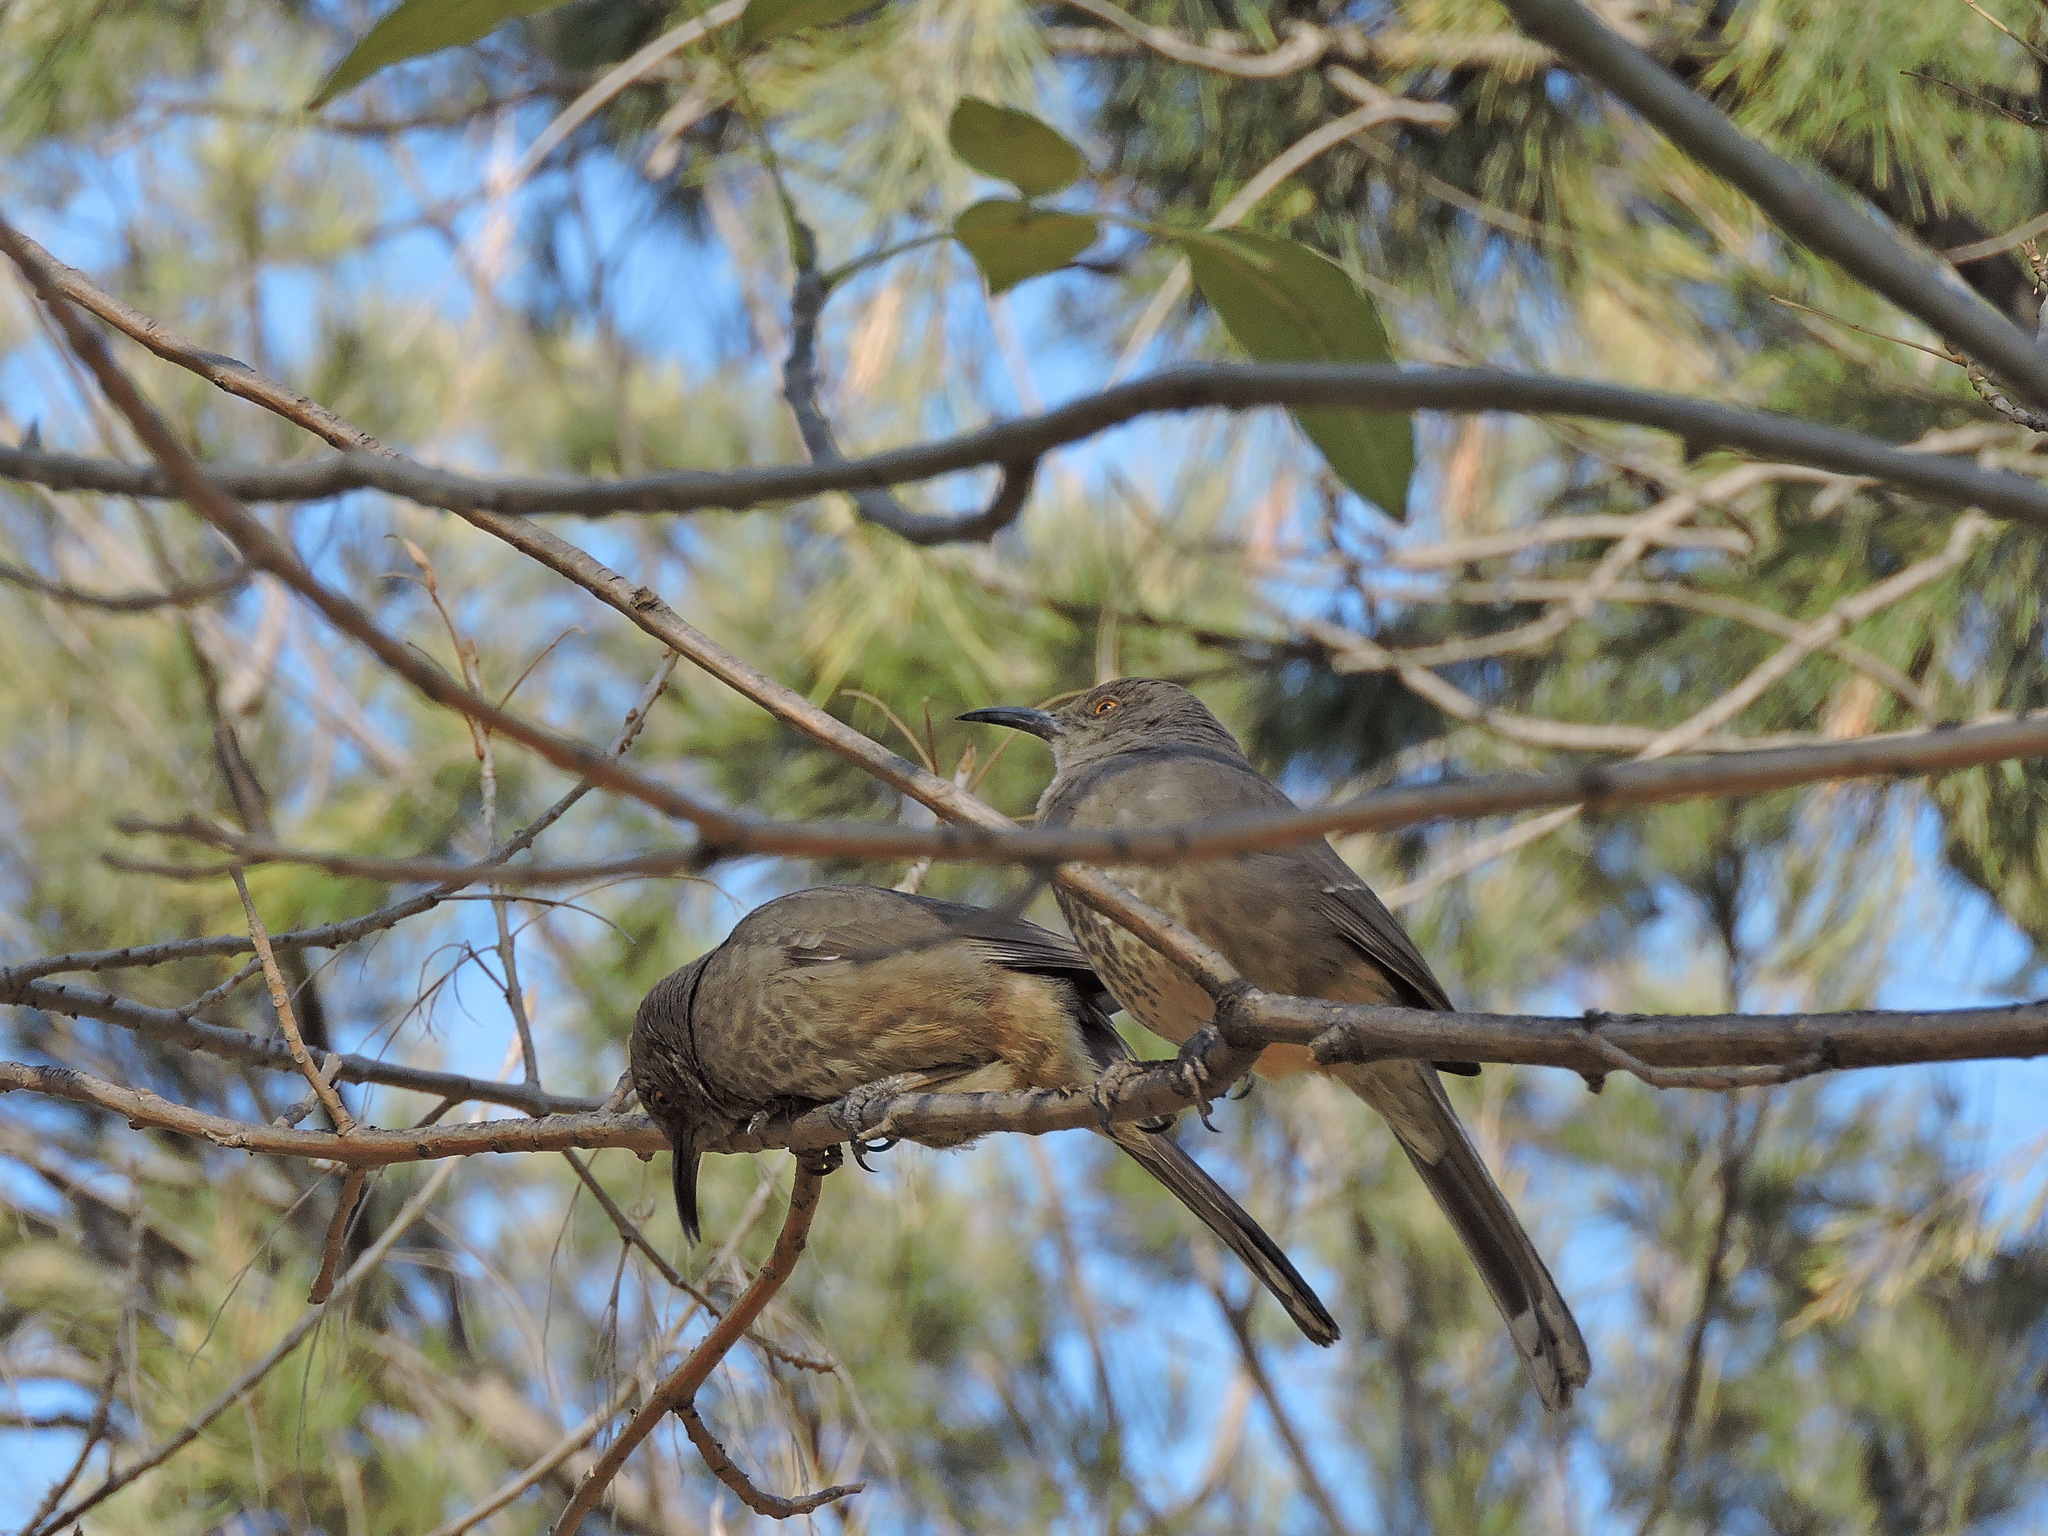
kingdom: Animalia
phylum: Chordata
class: Aves
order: Passeriformes
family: Mimidae
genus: Toxostoma
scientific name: Toxostoma curvirostre
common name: Curve-billed thrasher
